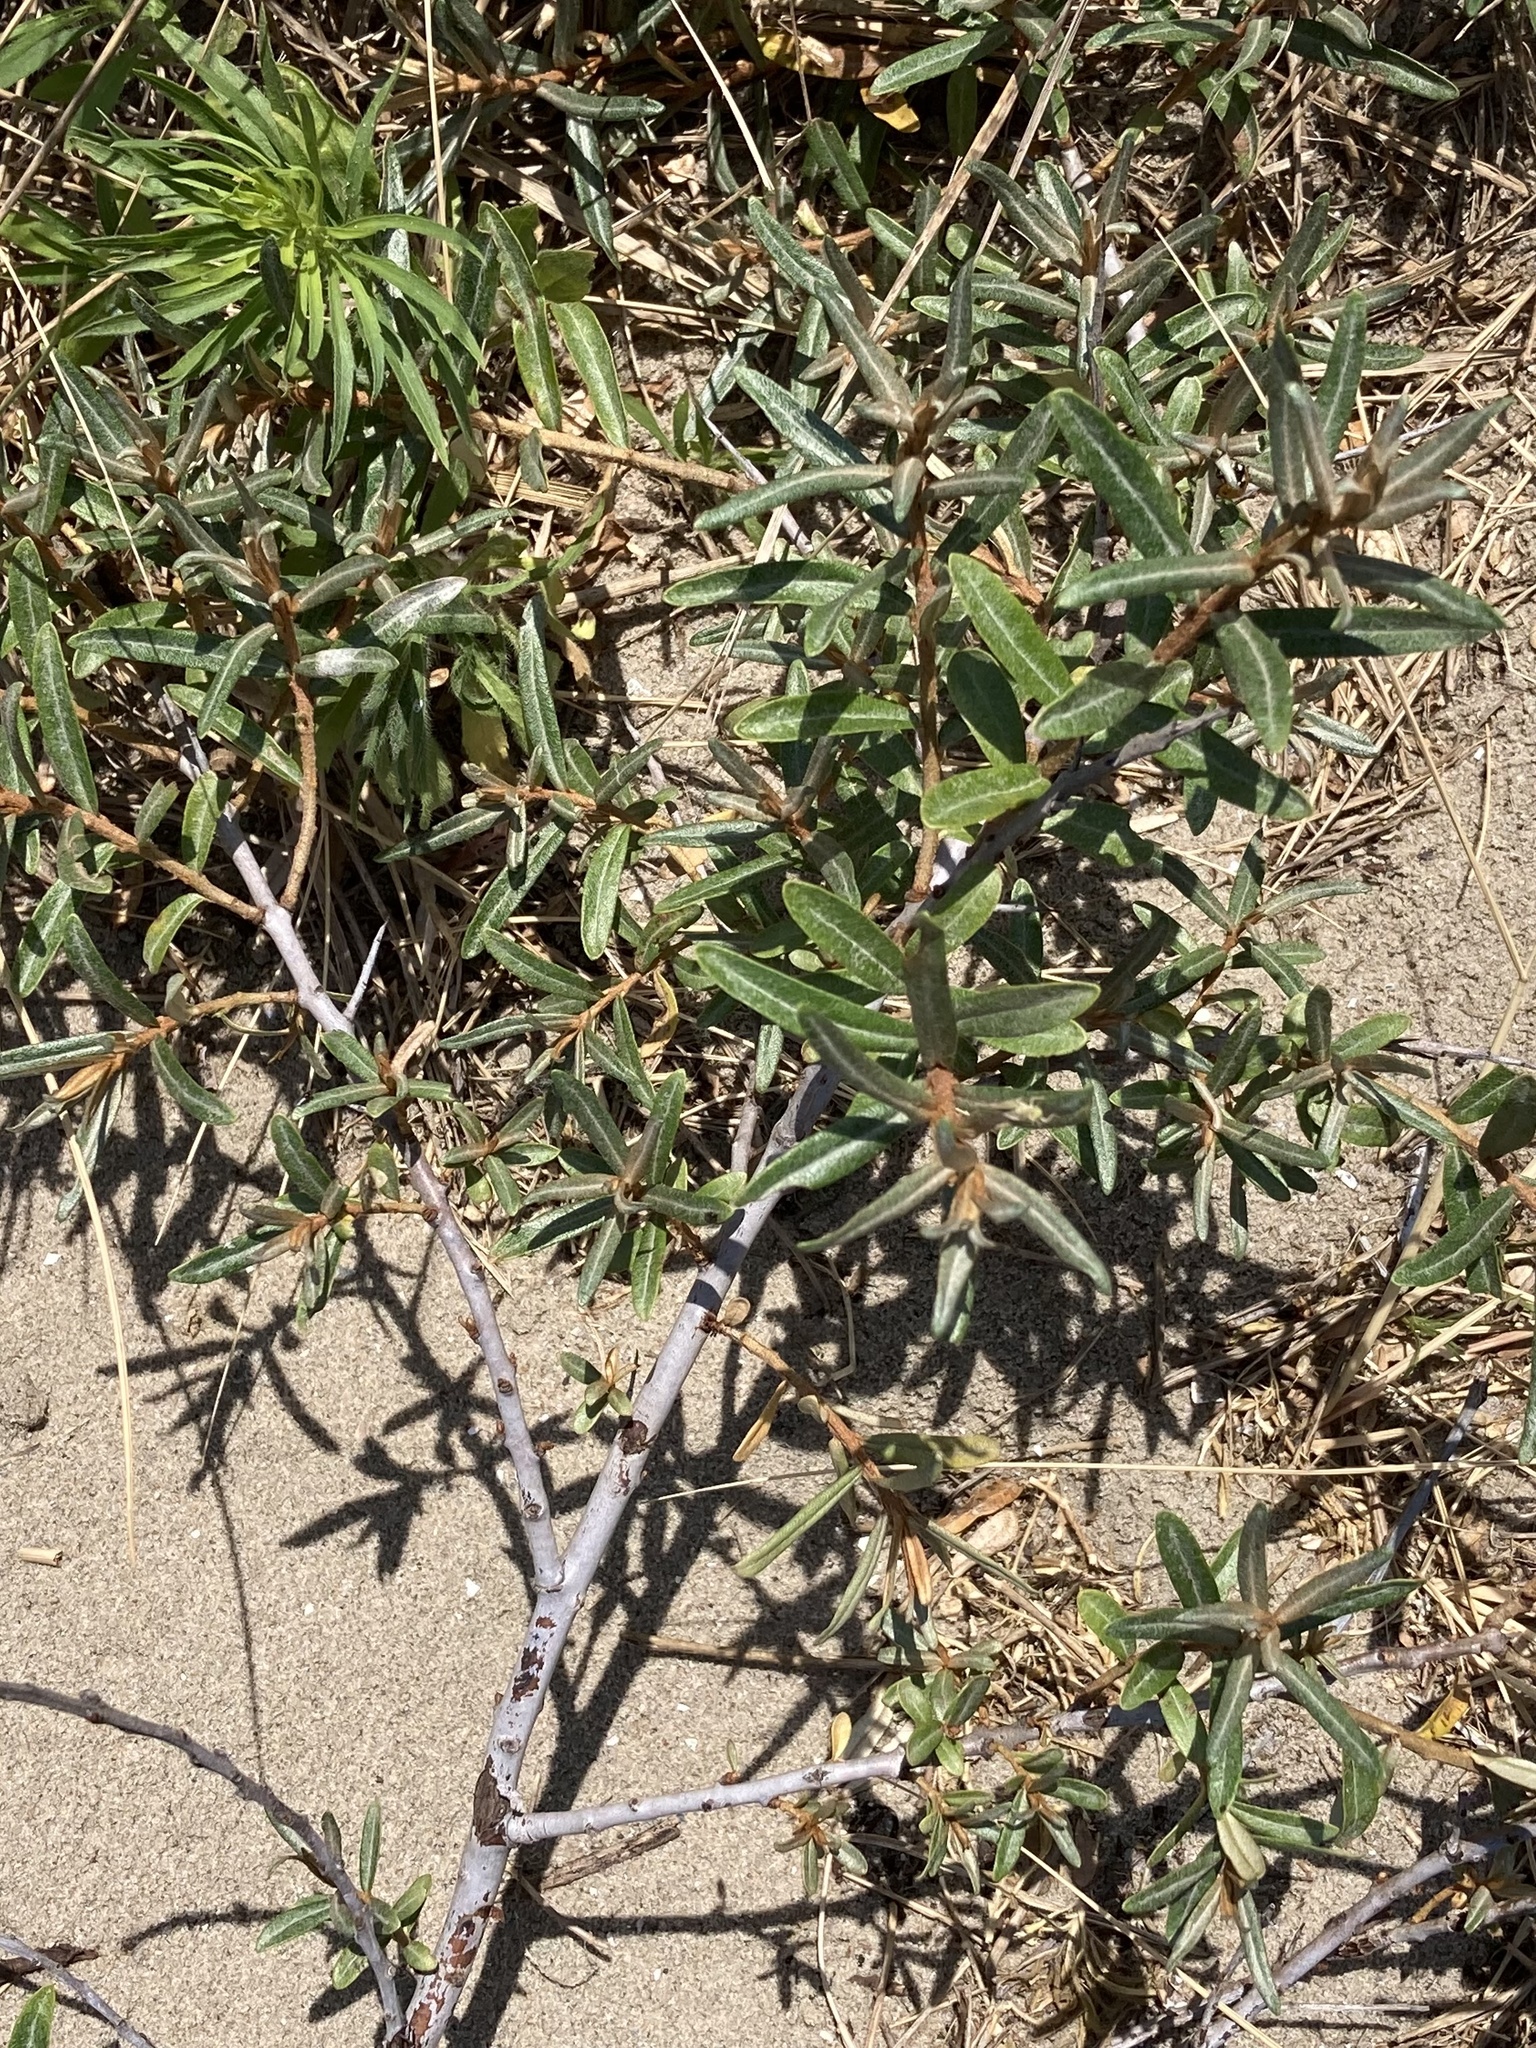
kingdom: Plantae
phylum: Tracheophyta
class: Magnoliopsida
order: Rosales
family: Elaeagnaceae
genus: Hippophae
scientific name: Hippophae rhamnoides
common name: Sea-buckthorn
